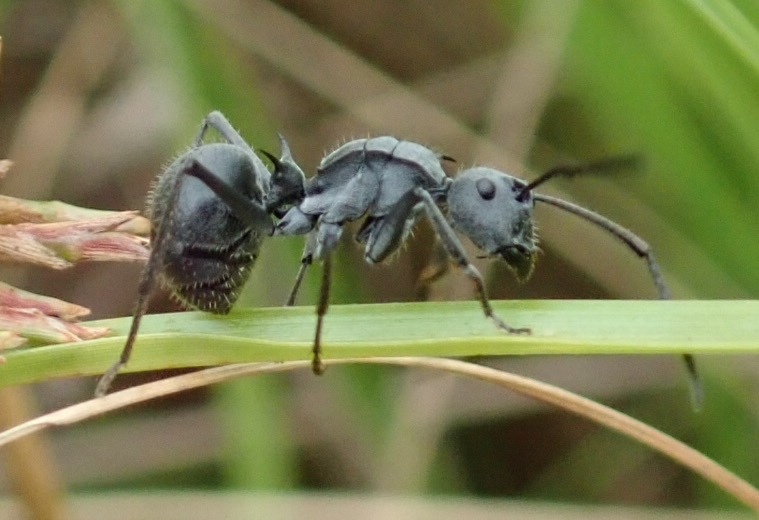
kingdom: Animalia
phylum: Arthropoda
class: Insecta
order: Hymenoptera
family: Formicidae
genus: Polyrhachis
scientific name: Polyrhachis schistacea
